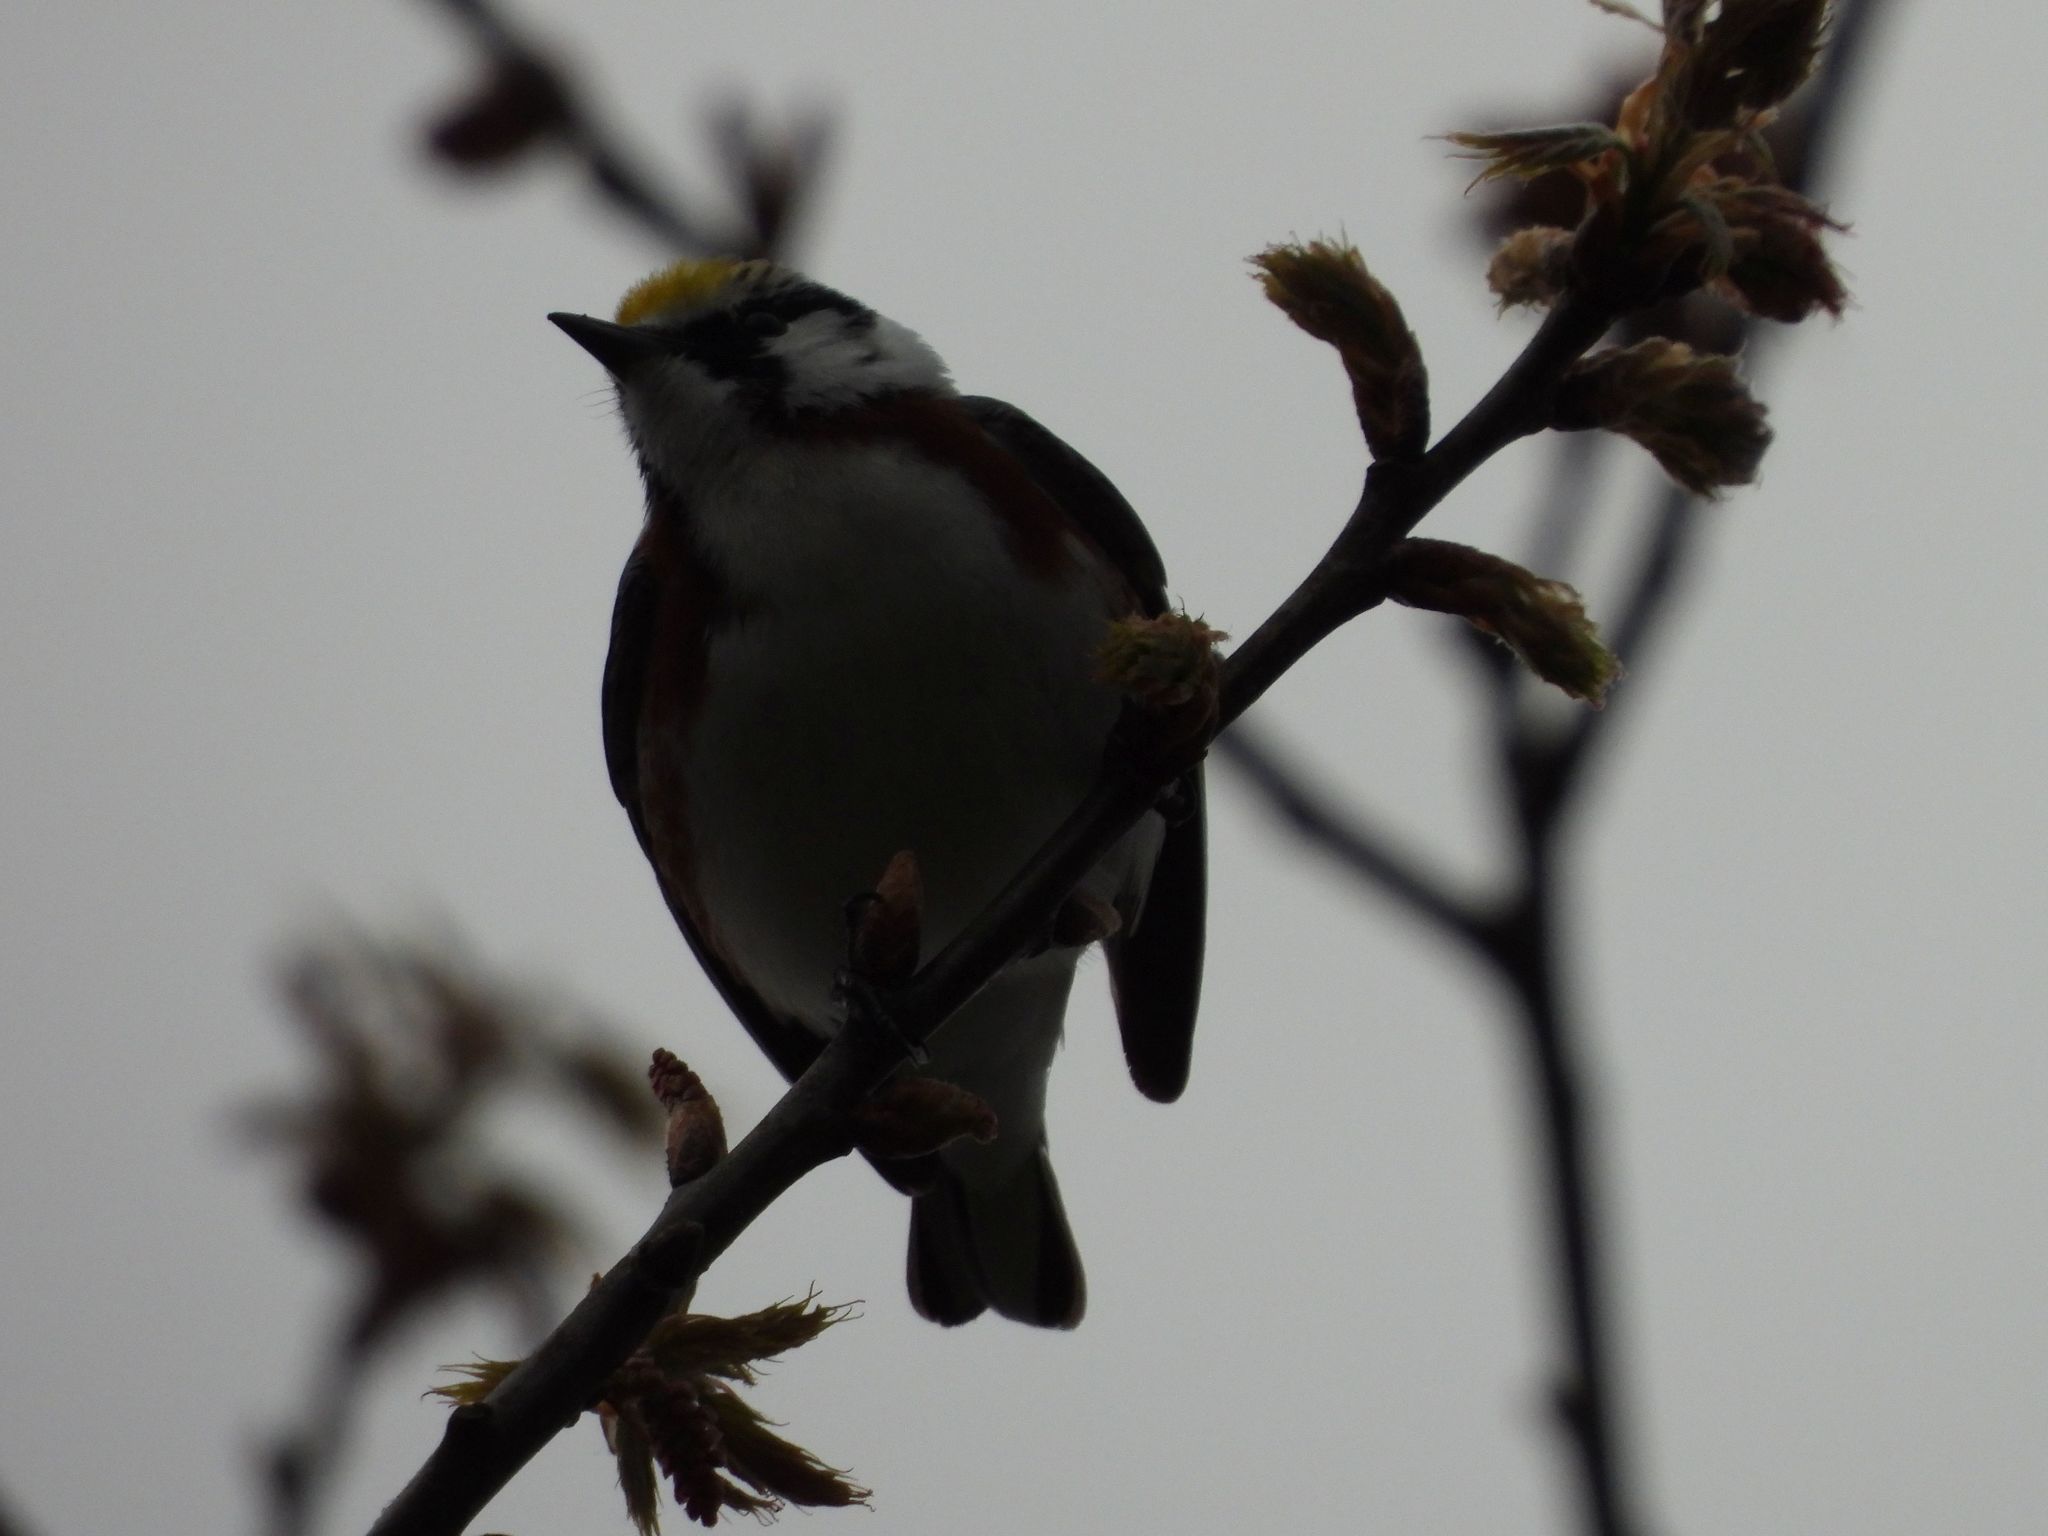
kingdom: Animalia
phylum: Chordata
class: Aves
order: Passeriformes
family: Parulidae
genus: Setophaga
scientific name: Setophaga pensylvanica
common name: Chestnut-sided warbler
